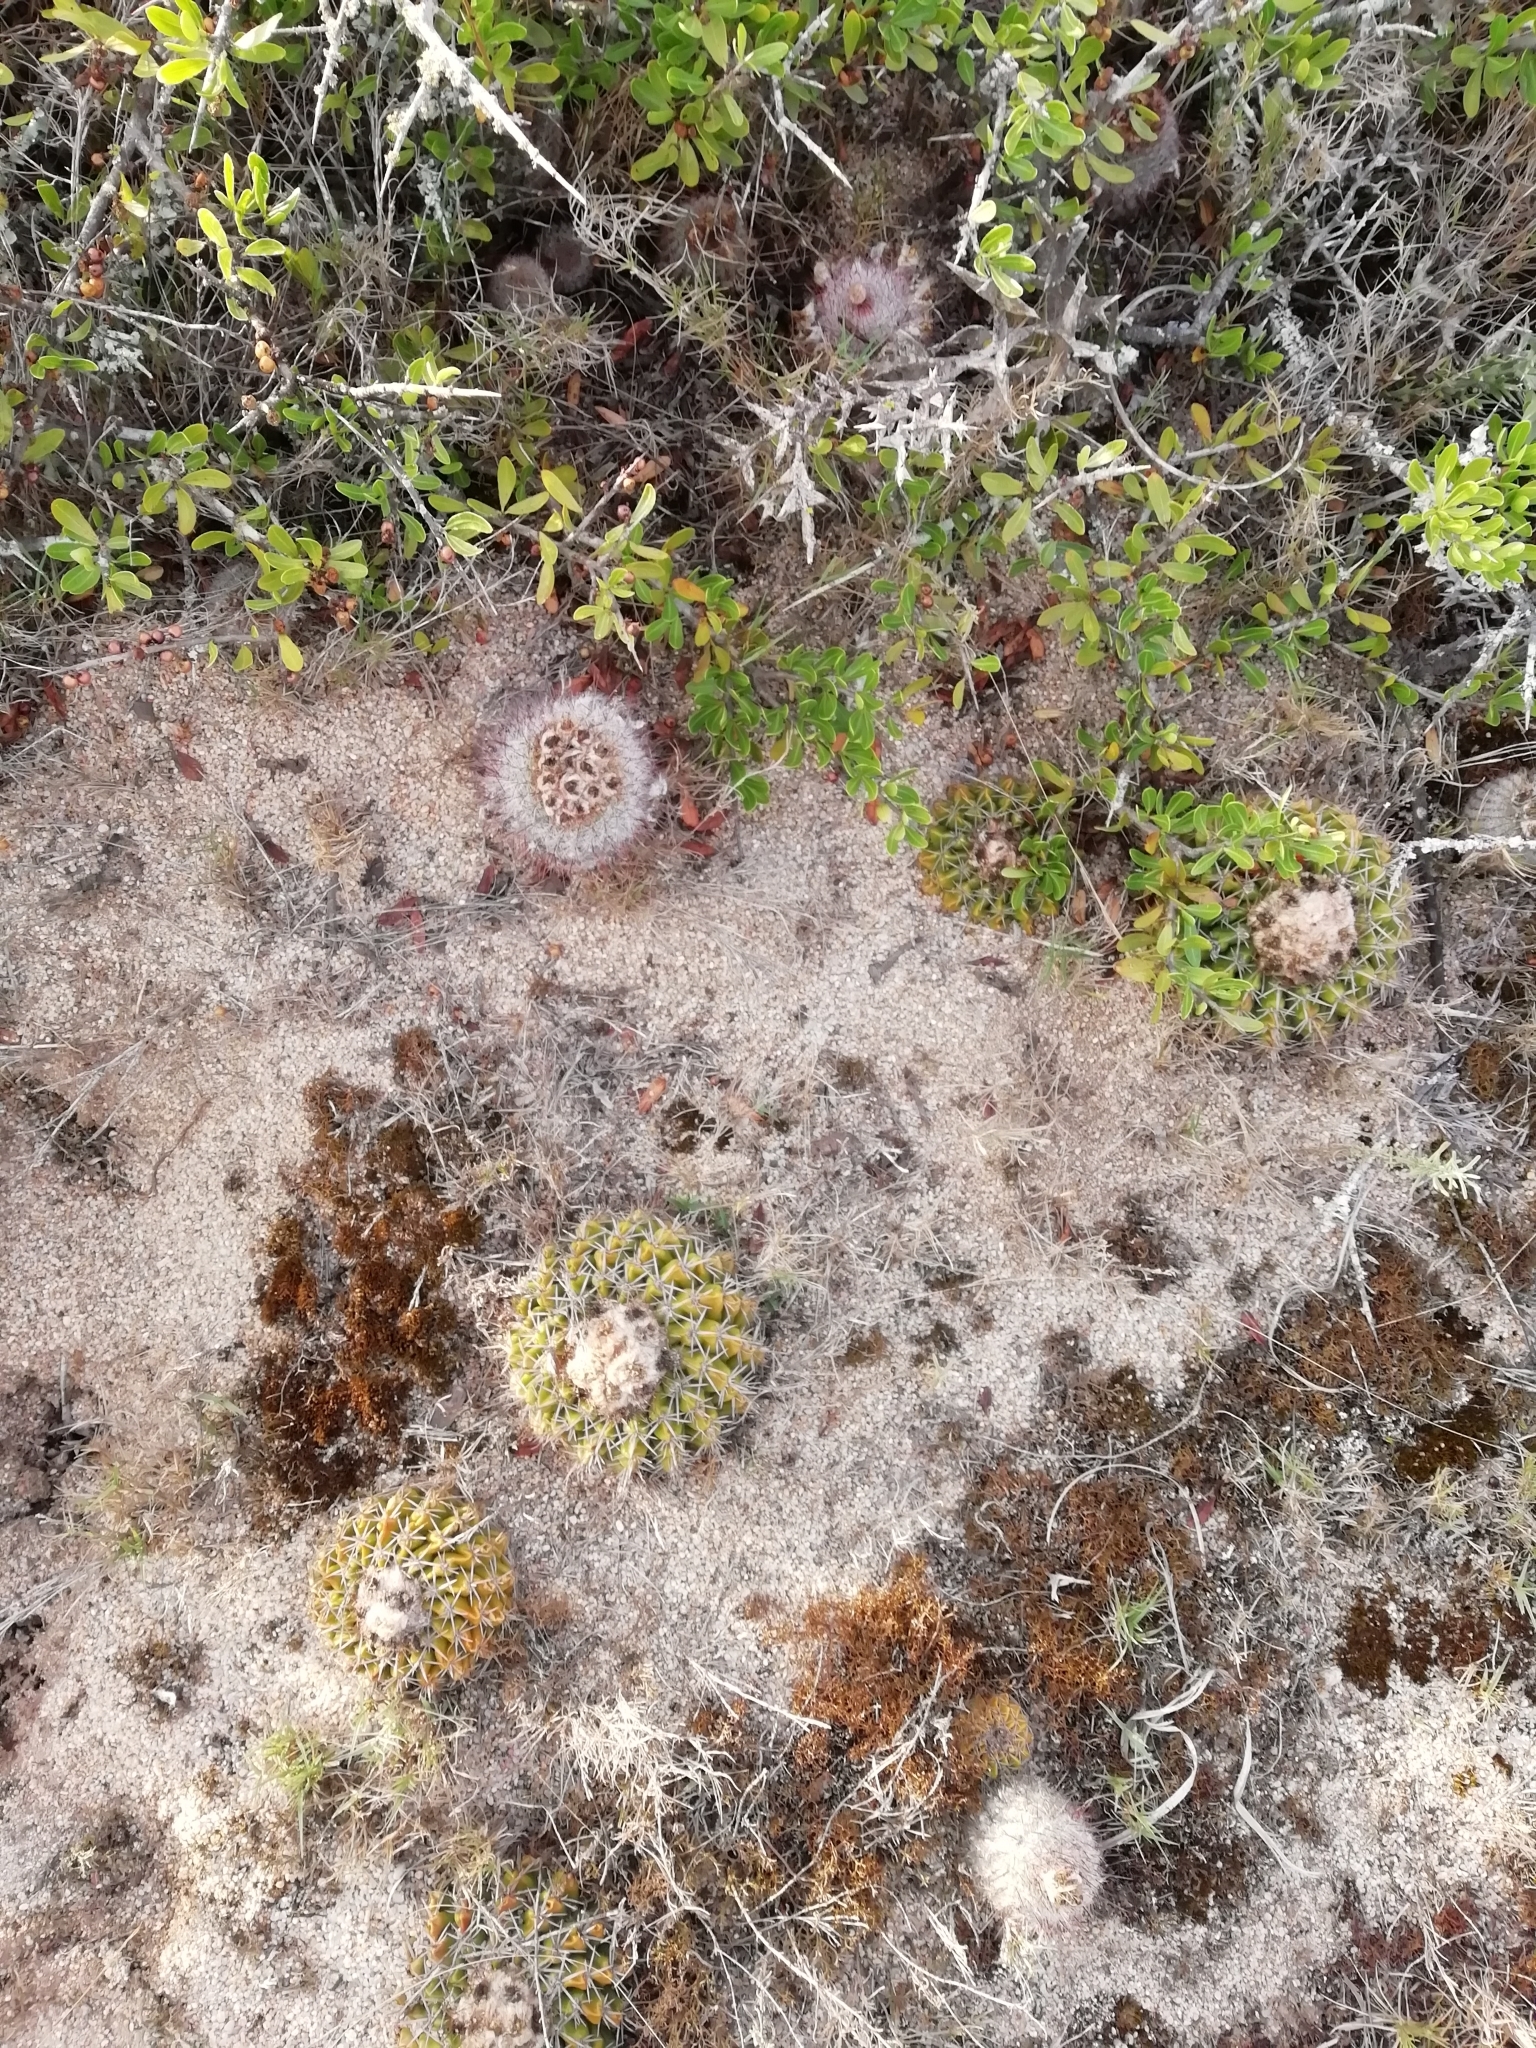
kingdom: Plantae
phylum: Tracheophyta
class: Magnoliopsida
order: Caryophyllales
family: Cactaceae
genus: Parodia
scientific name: Parodia erinacea
